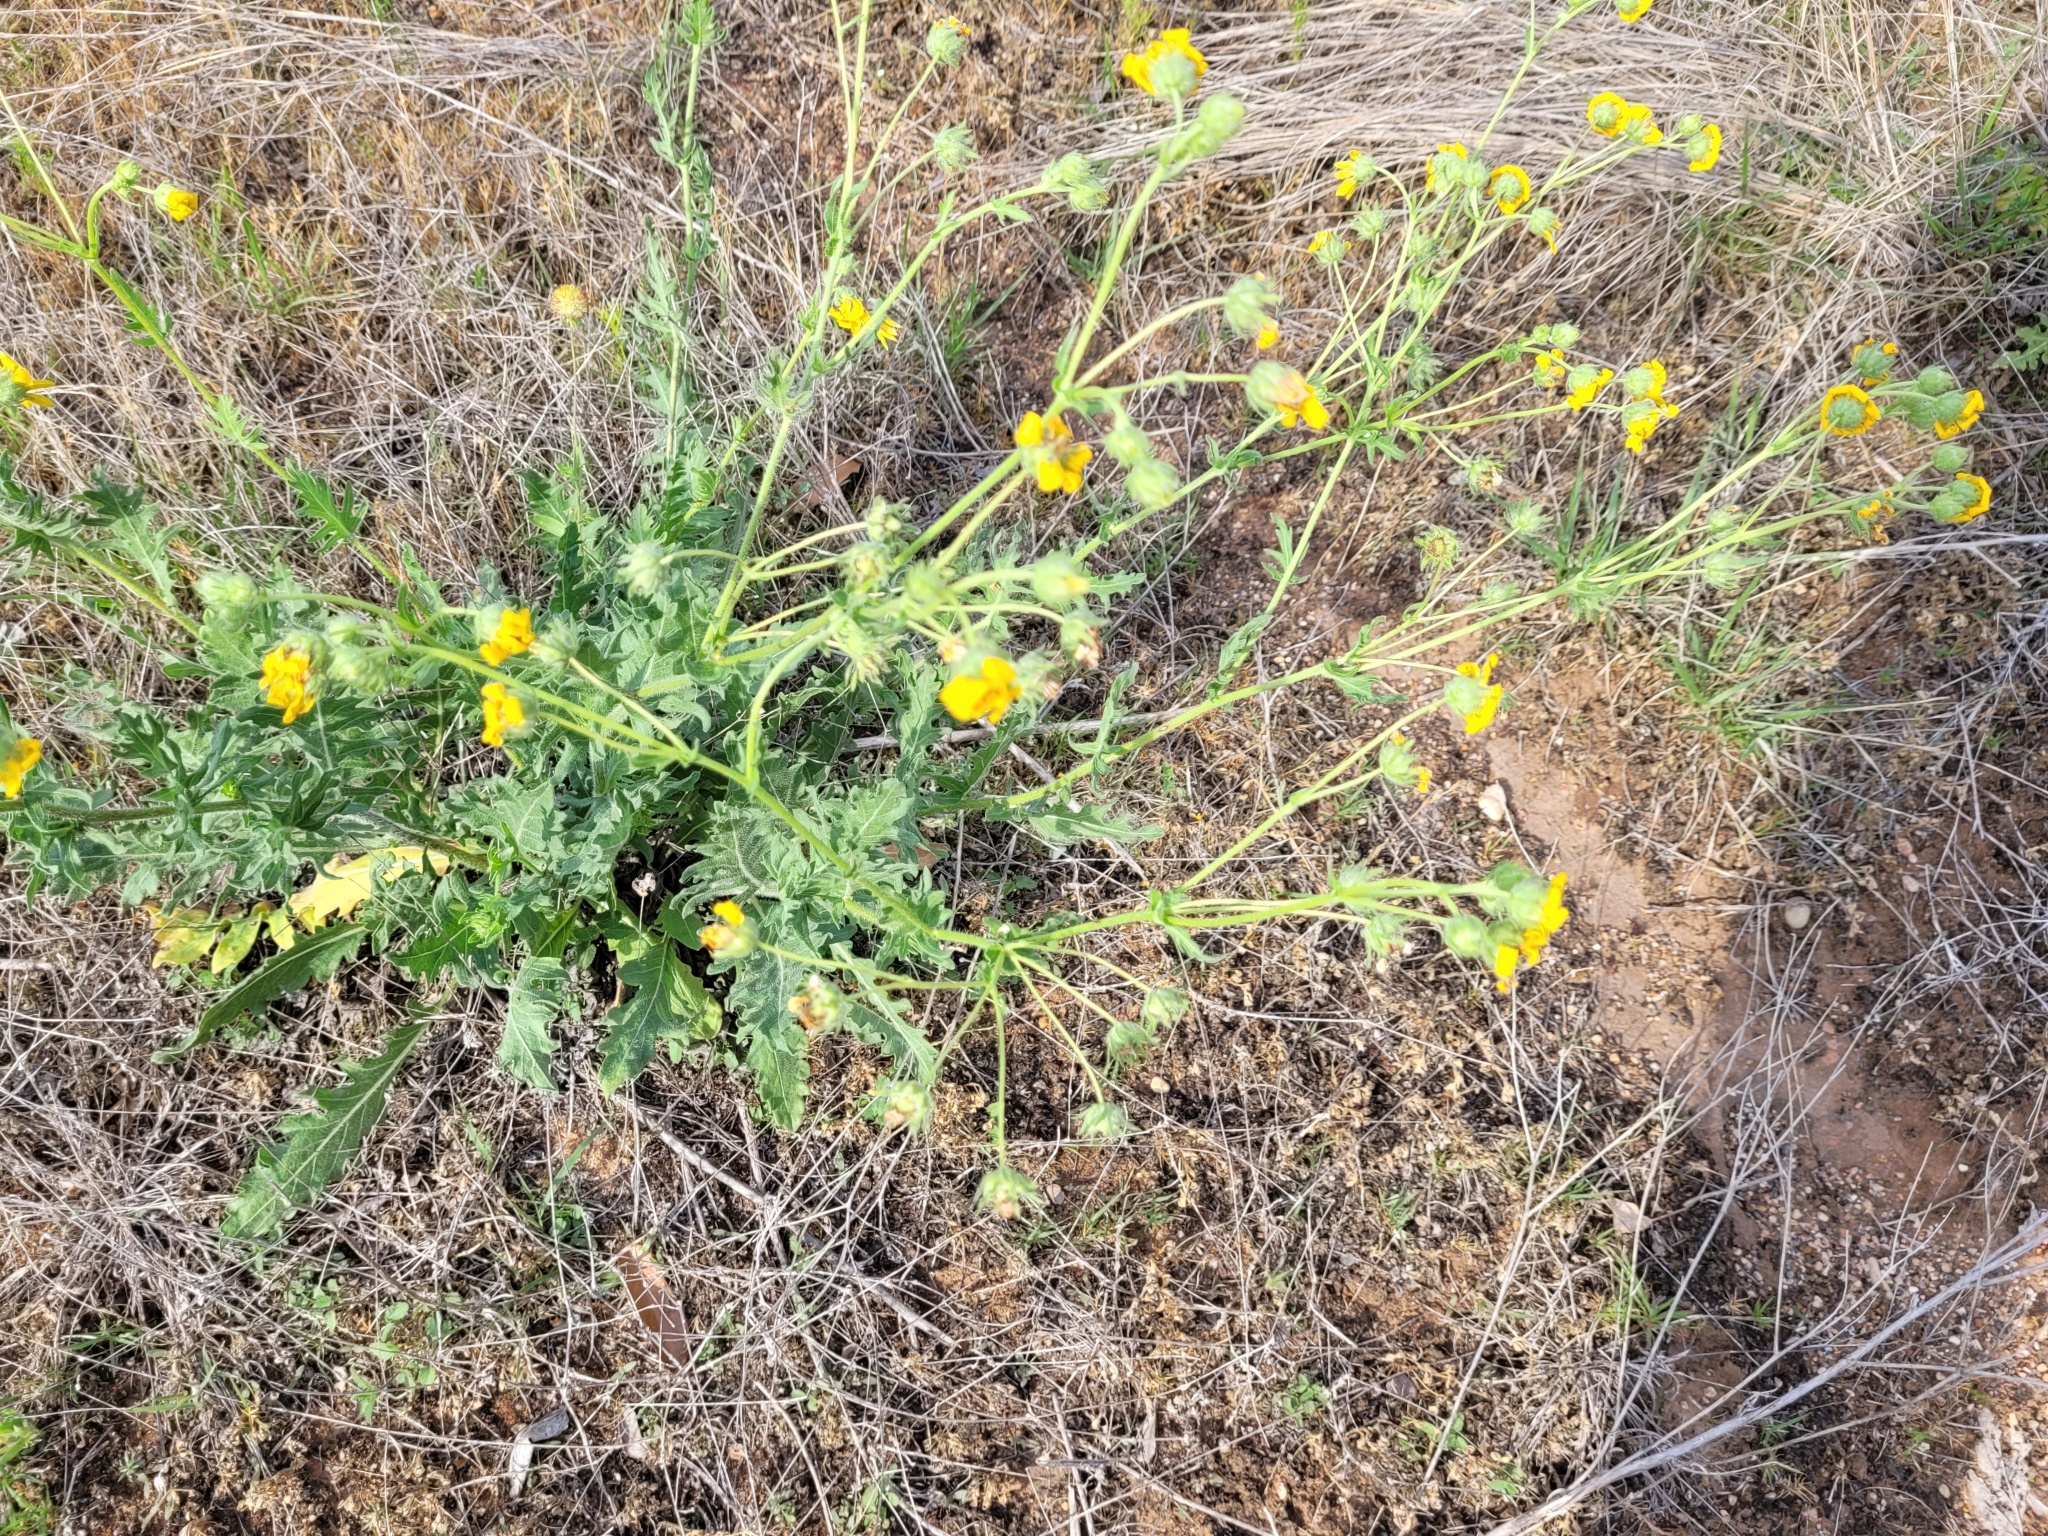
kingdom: Plantae
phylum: Tracheophyta
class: Magnoliopsida
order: Asterales
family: Asteraceae
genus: Engelmannia
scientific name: Engelmannia peristenia
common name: Engelmann's daisy
